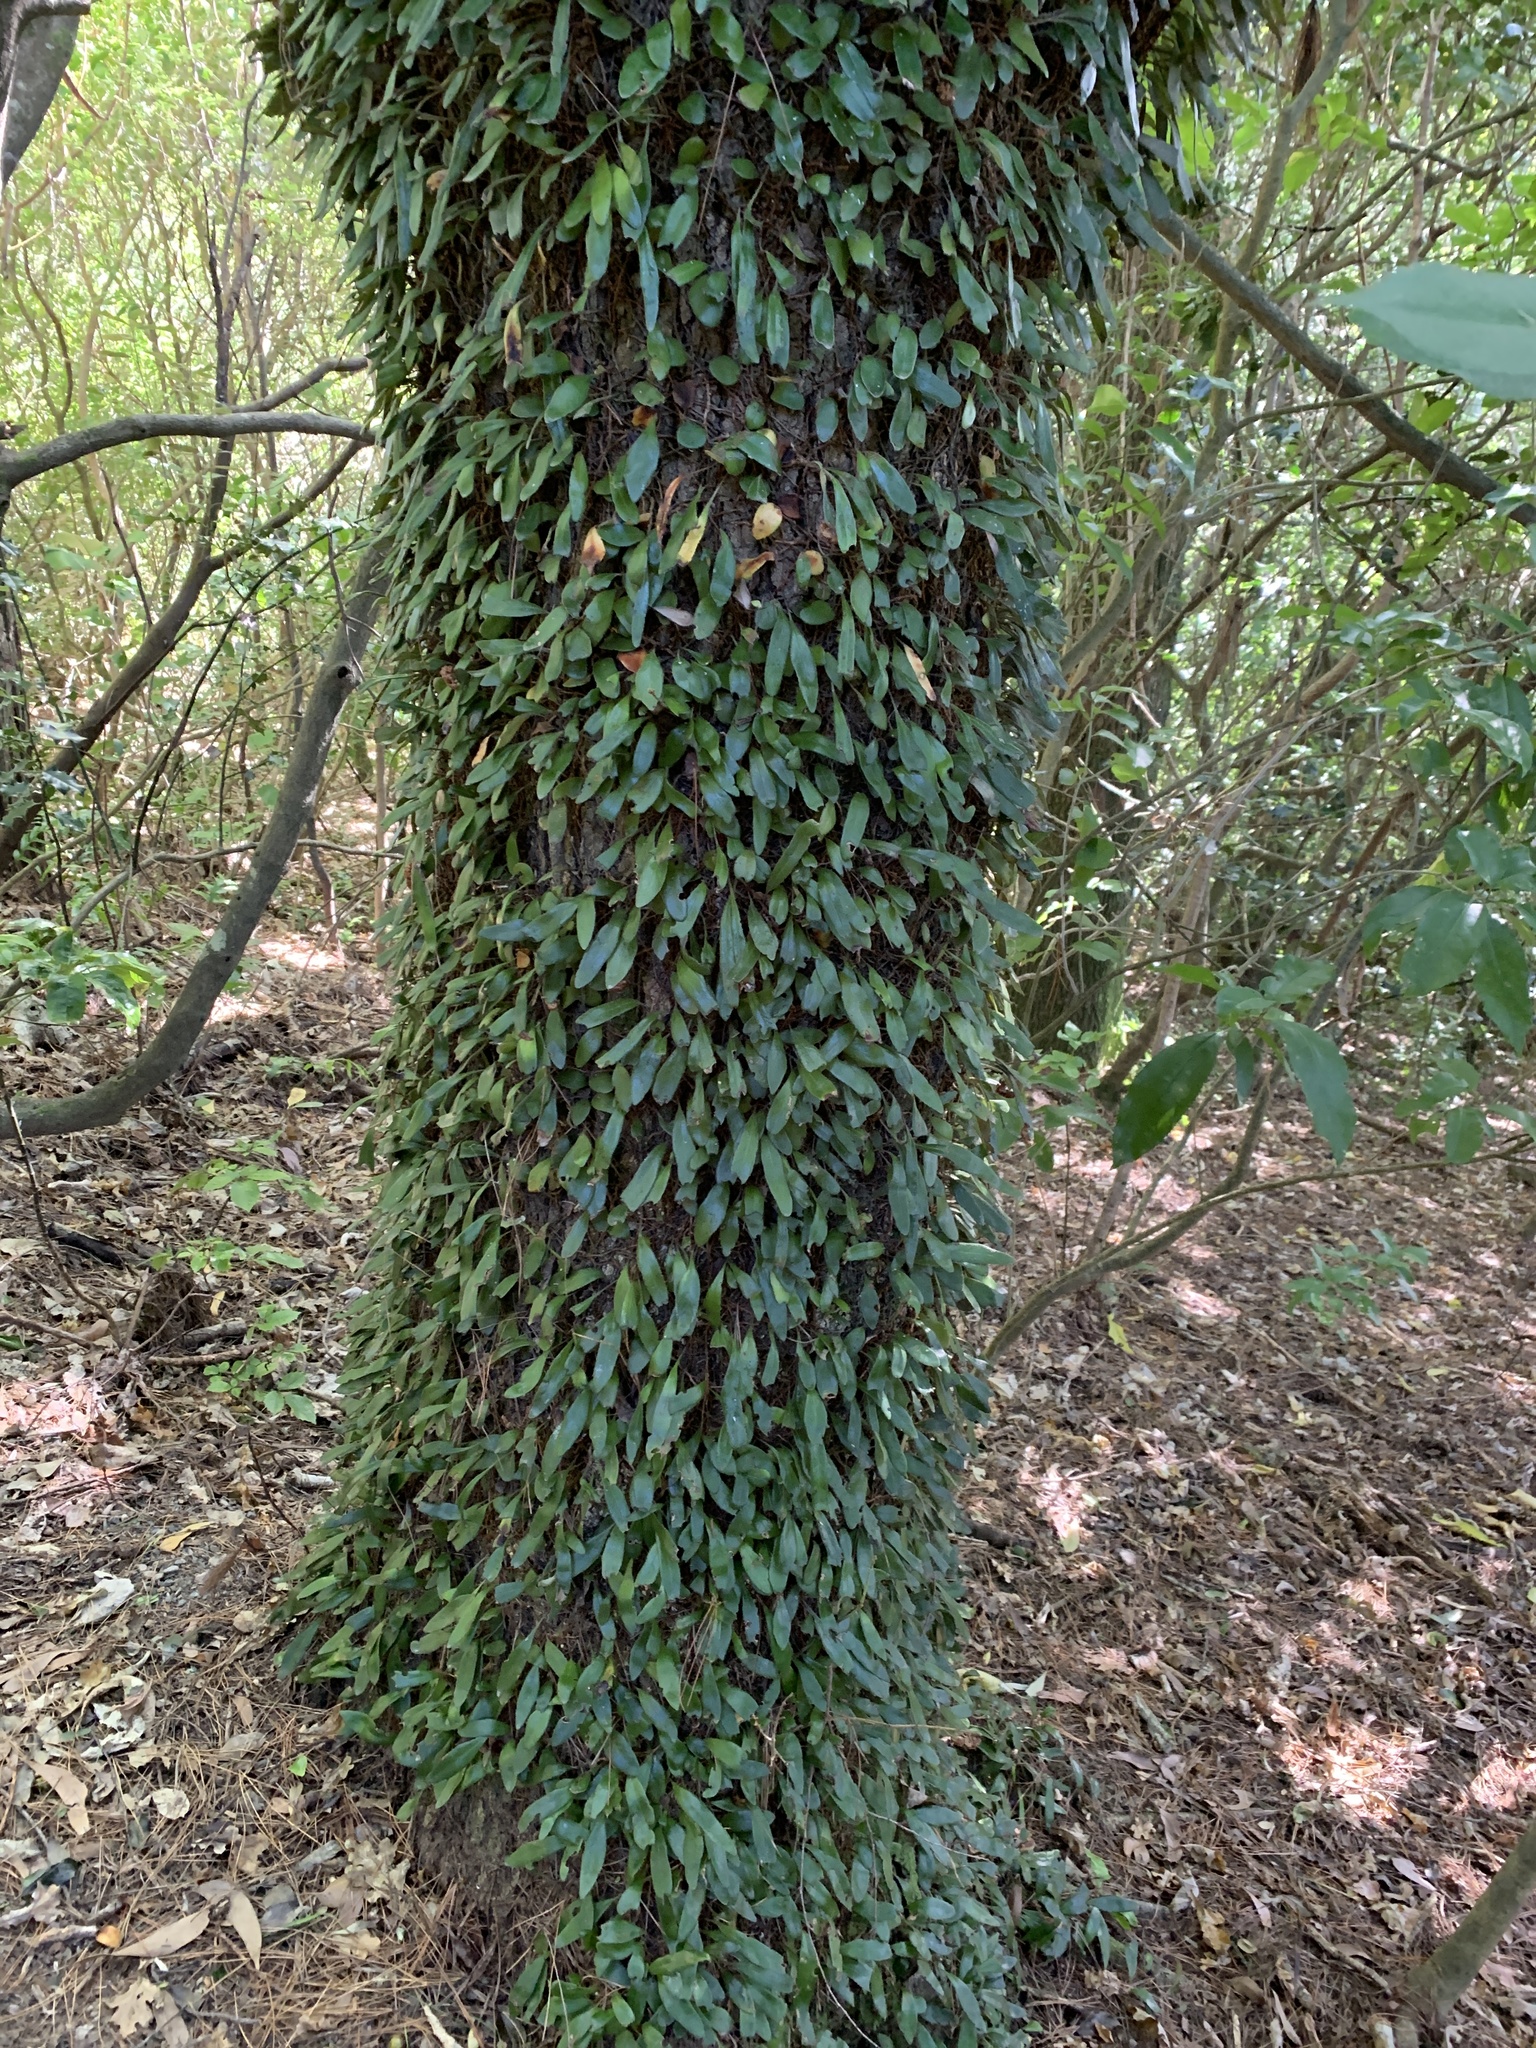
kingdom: Plantae
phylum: Tracheophyta
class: Polypodiopsida
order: Polypodiales
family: Polypodiaceae
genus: Pyrrosia
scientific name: Pyrrosia eleagnifolia
